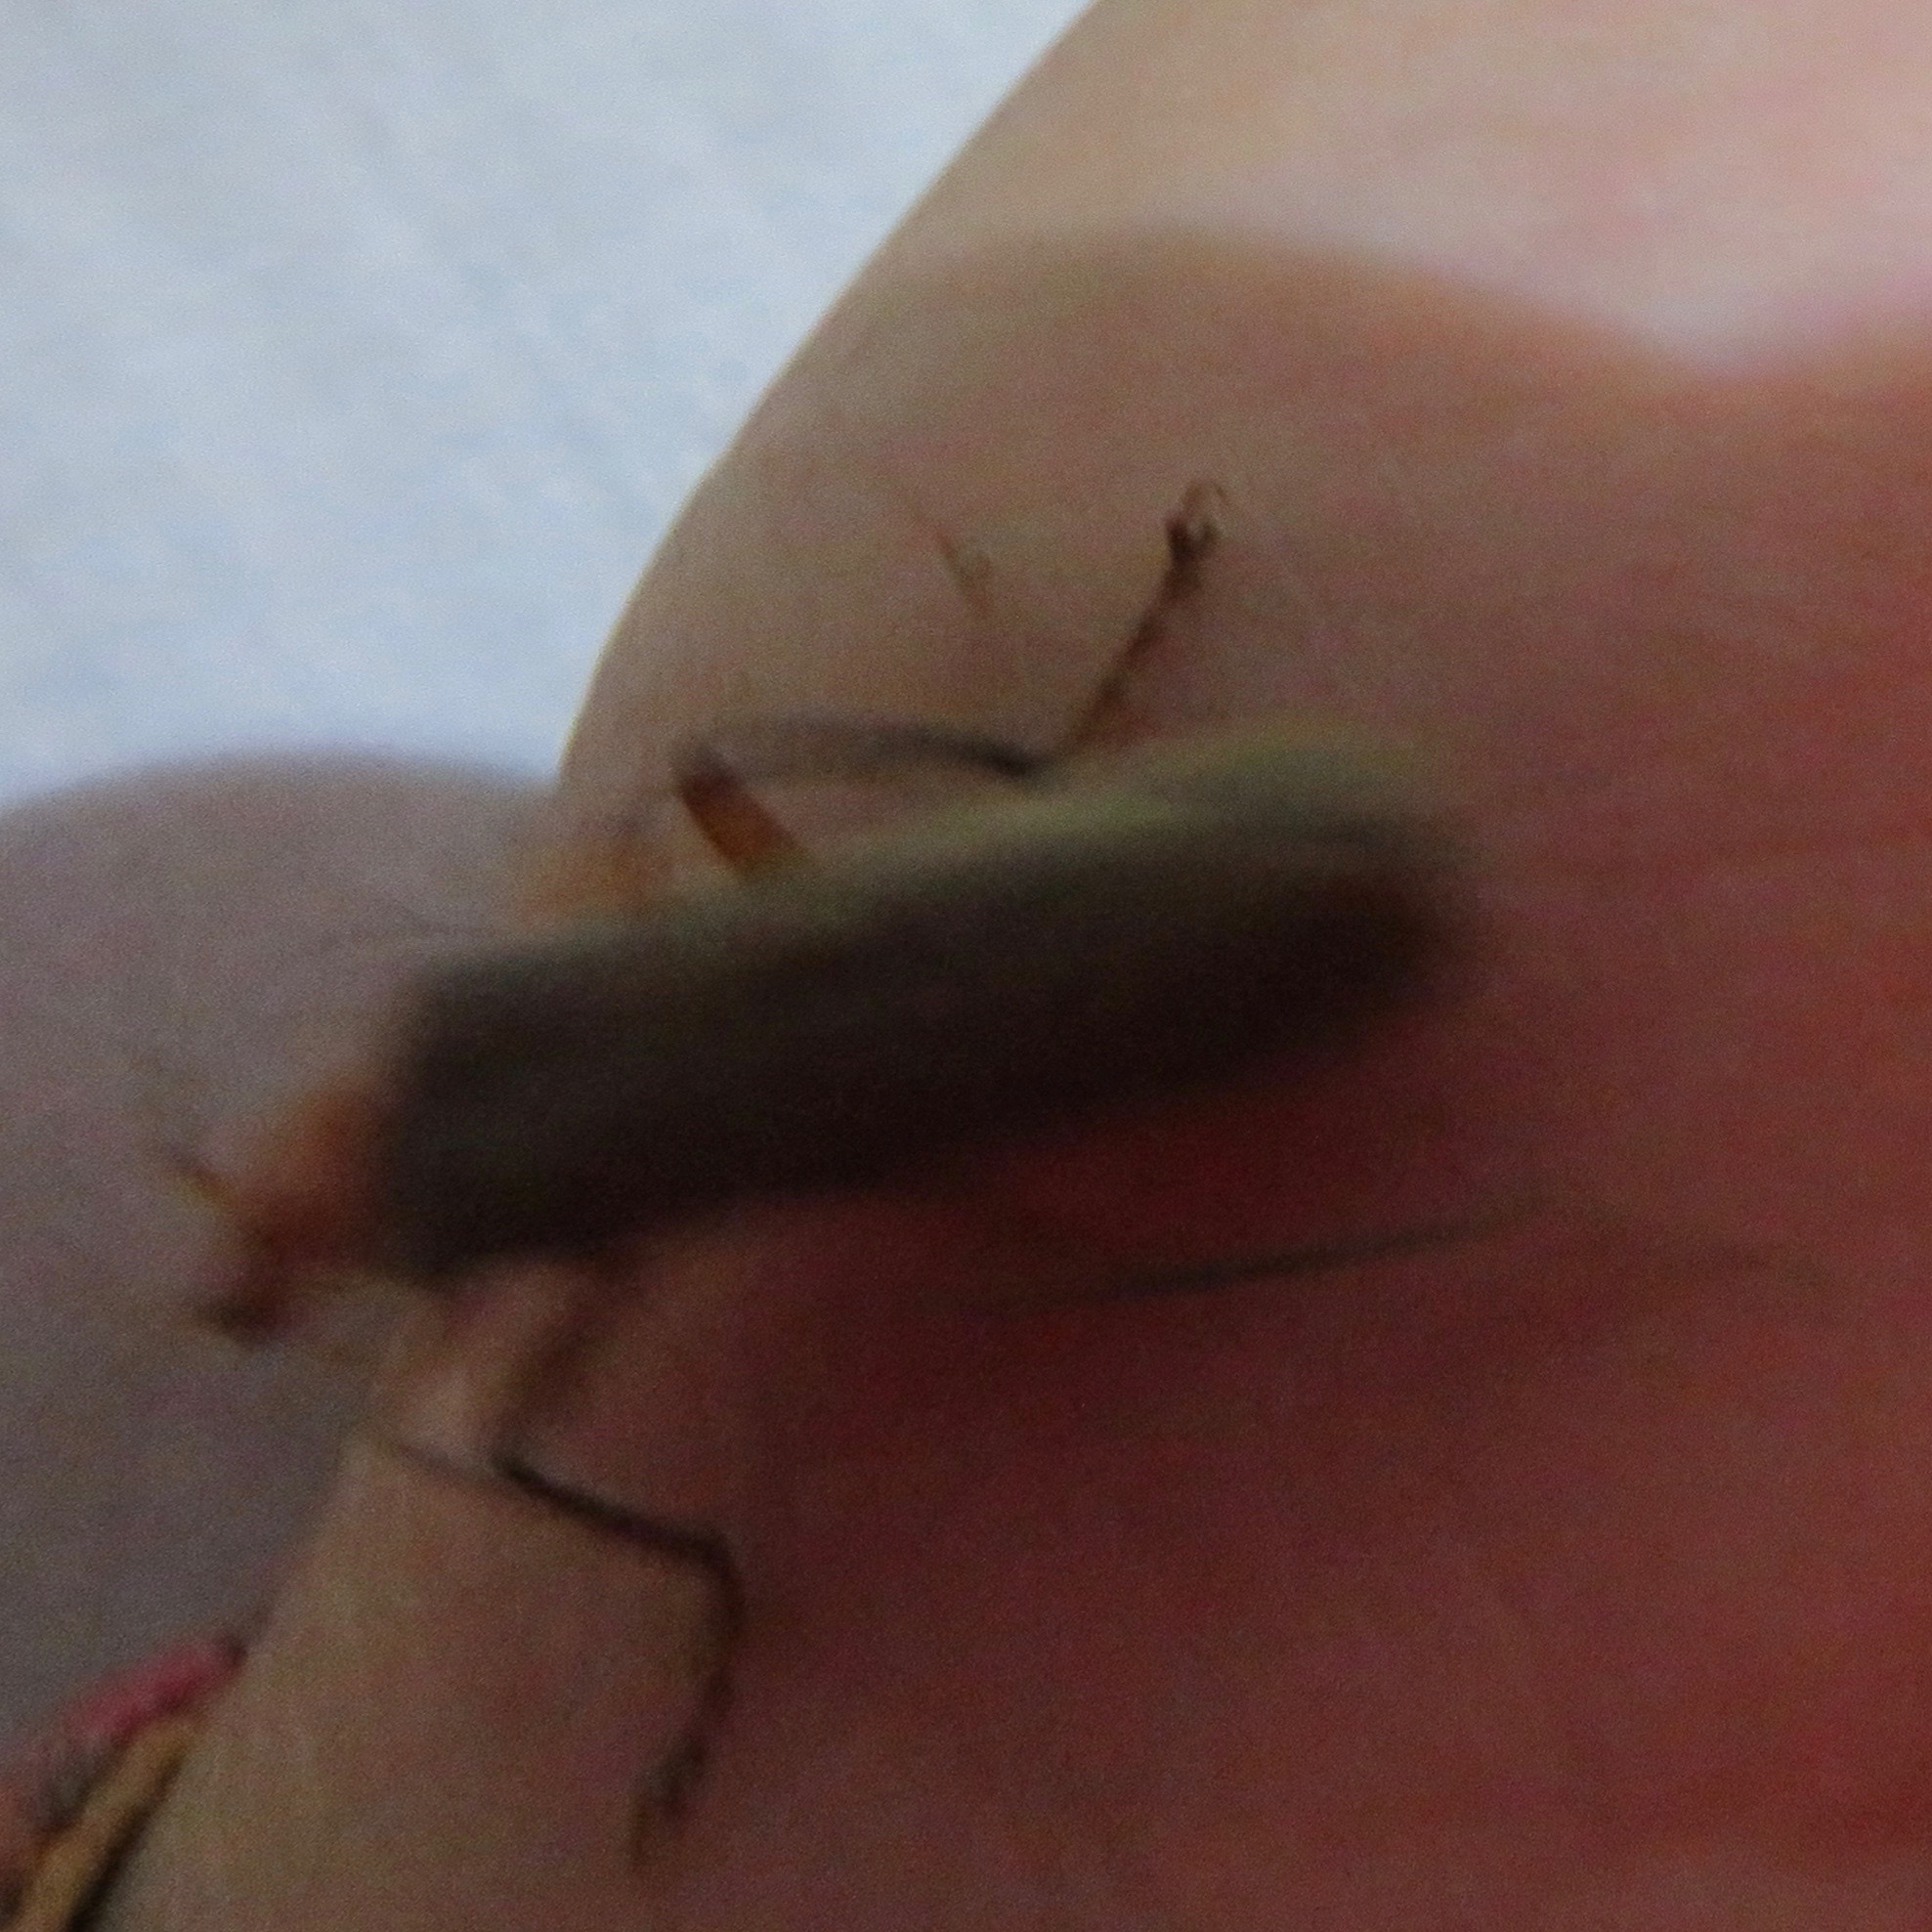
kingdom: Animalia
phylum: Arthropoda
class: Insecta
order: Coleoptera
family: Cantharidae
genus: Pacificanthia
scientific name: Pacificanthia consors
